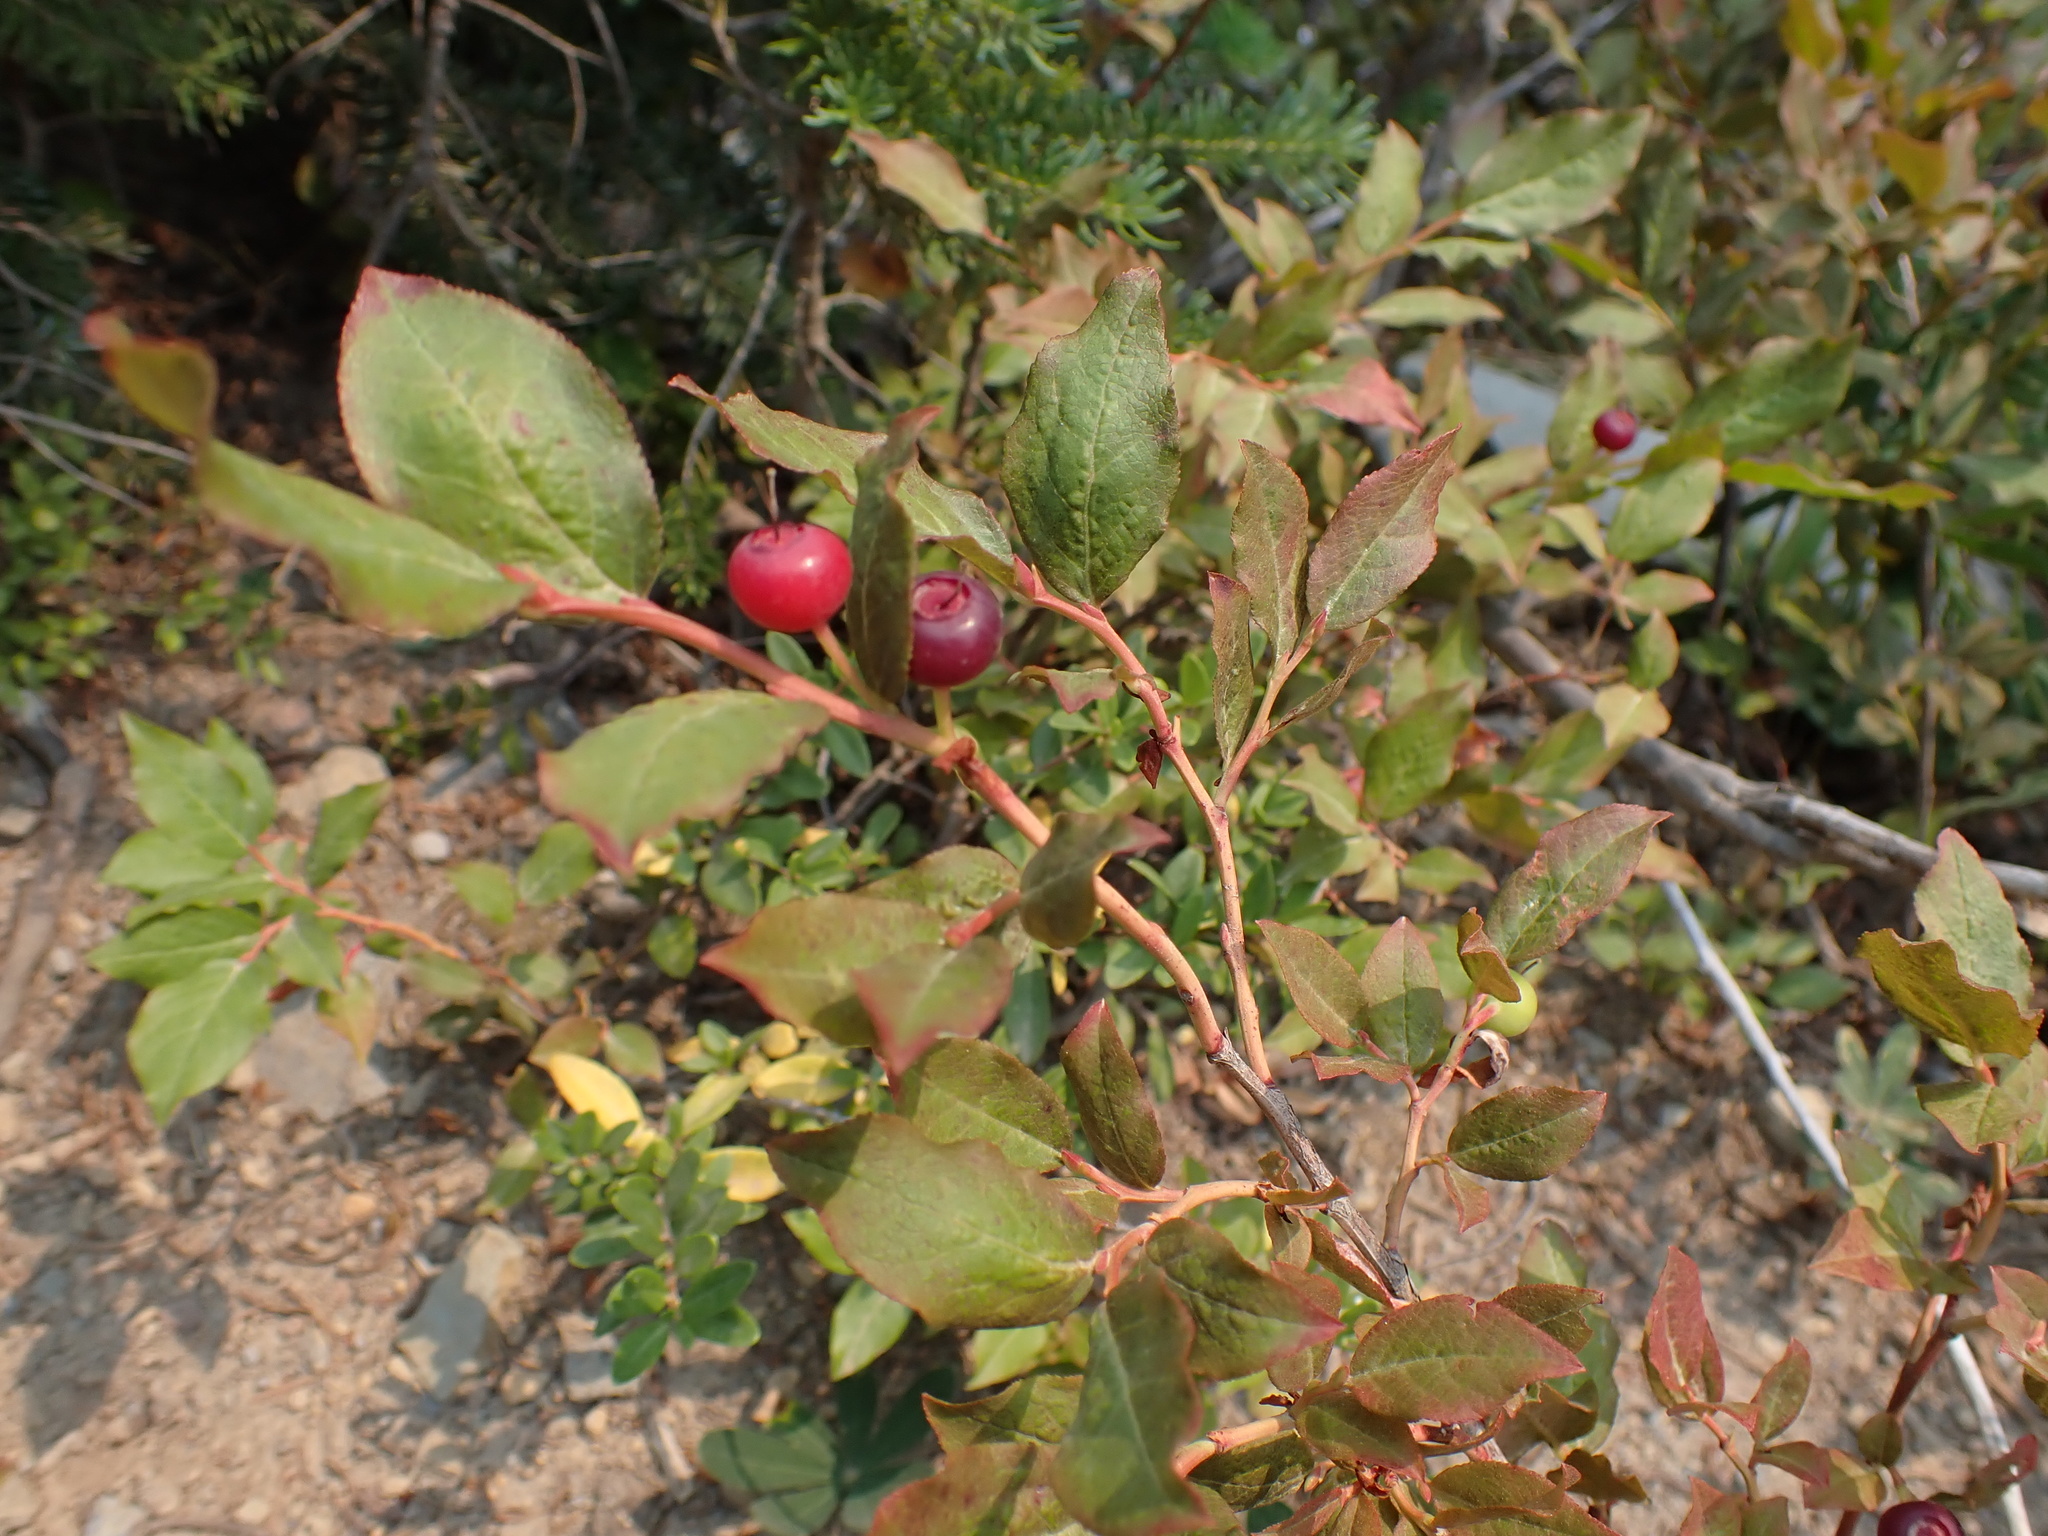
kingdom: Plantae
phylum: Tracheophyta
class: Magnoliopsida
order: Ericales
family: Ericaceae
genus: Vaccinium
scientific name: Vaccinium membranaceum
